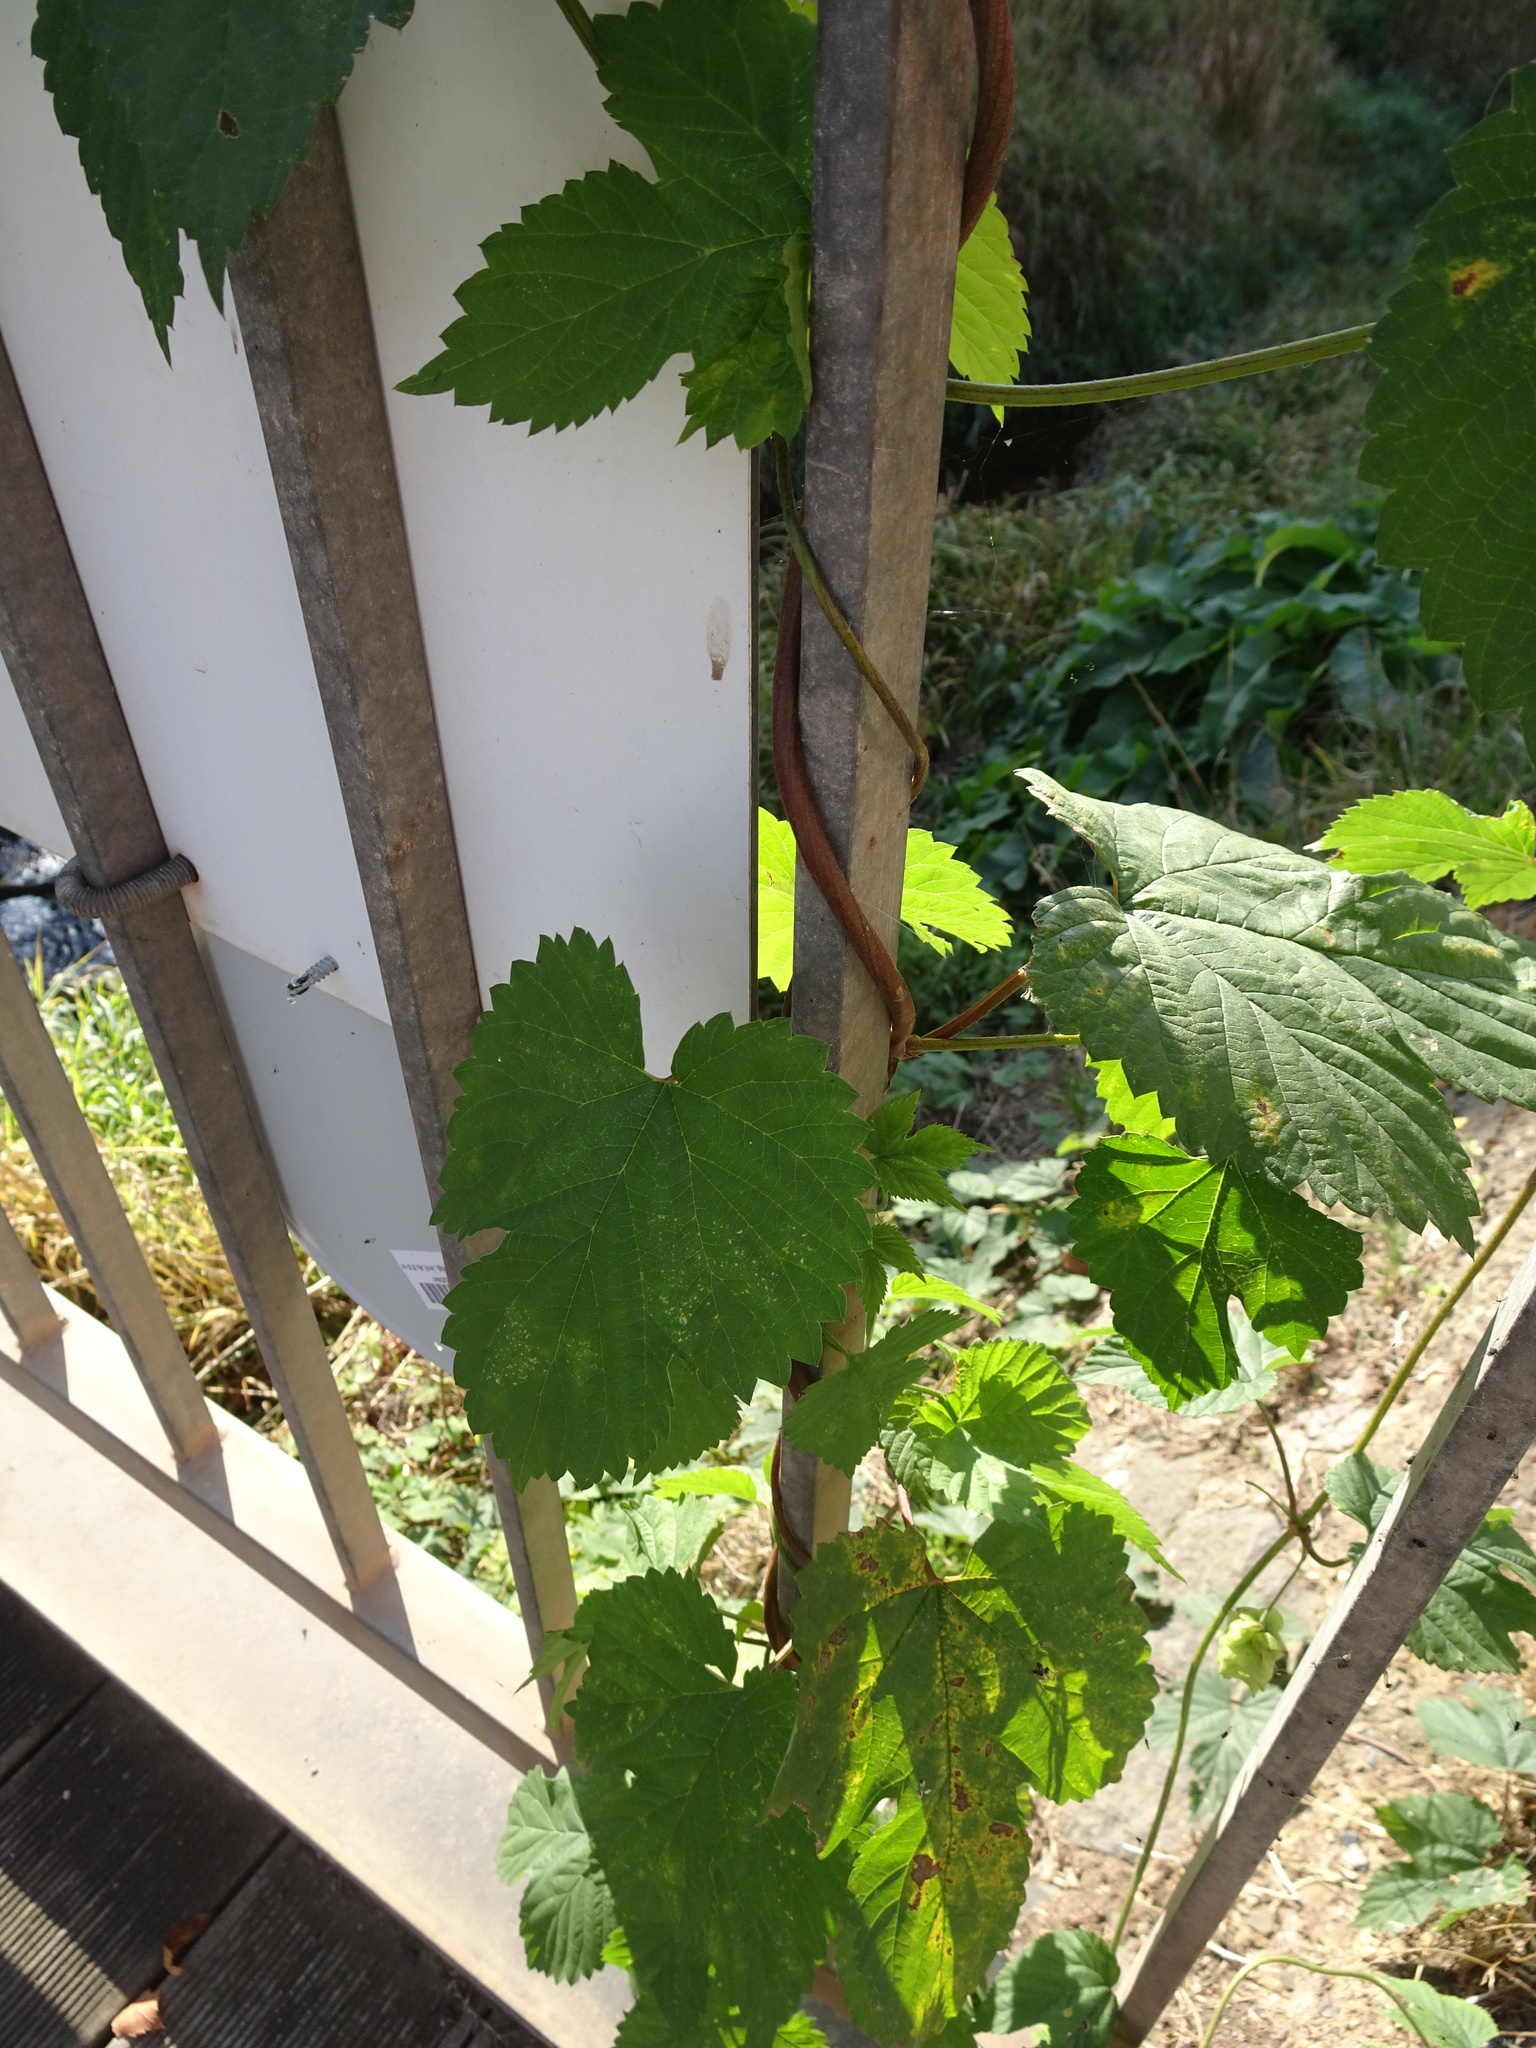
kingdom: Plantae
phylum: Tracheophyta
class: Magnoliopsida
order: Rosales
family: Cannabaceae
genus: Humulus
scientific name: Humulus lupulus
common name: Hop
